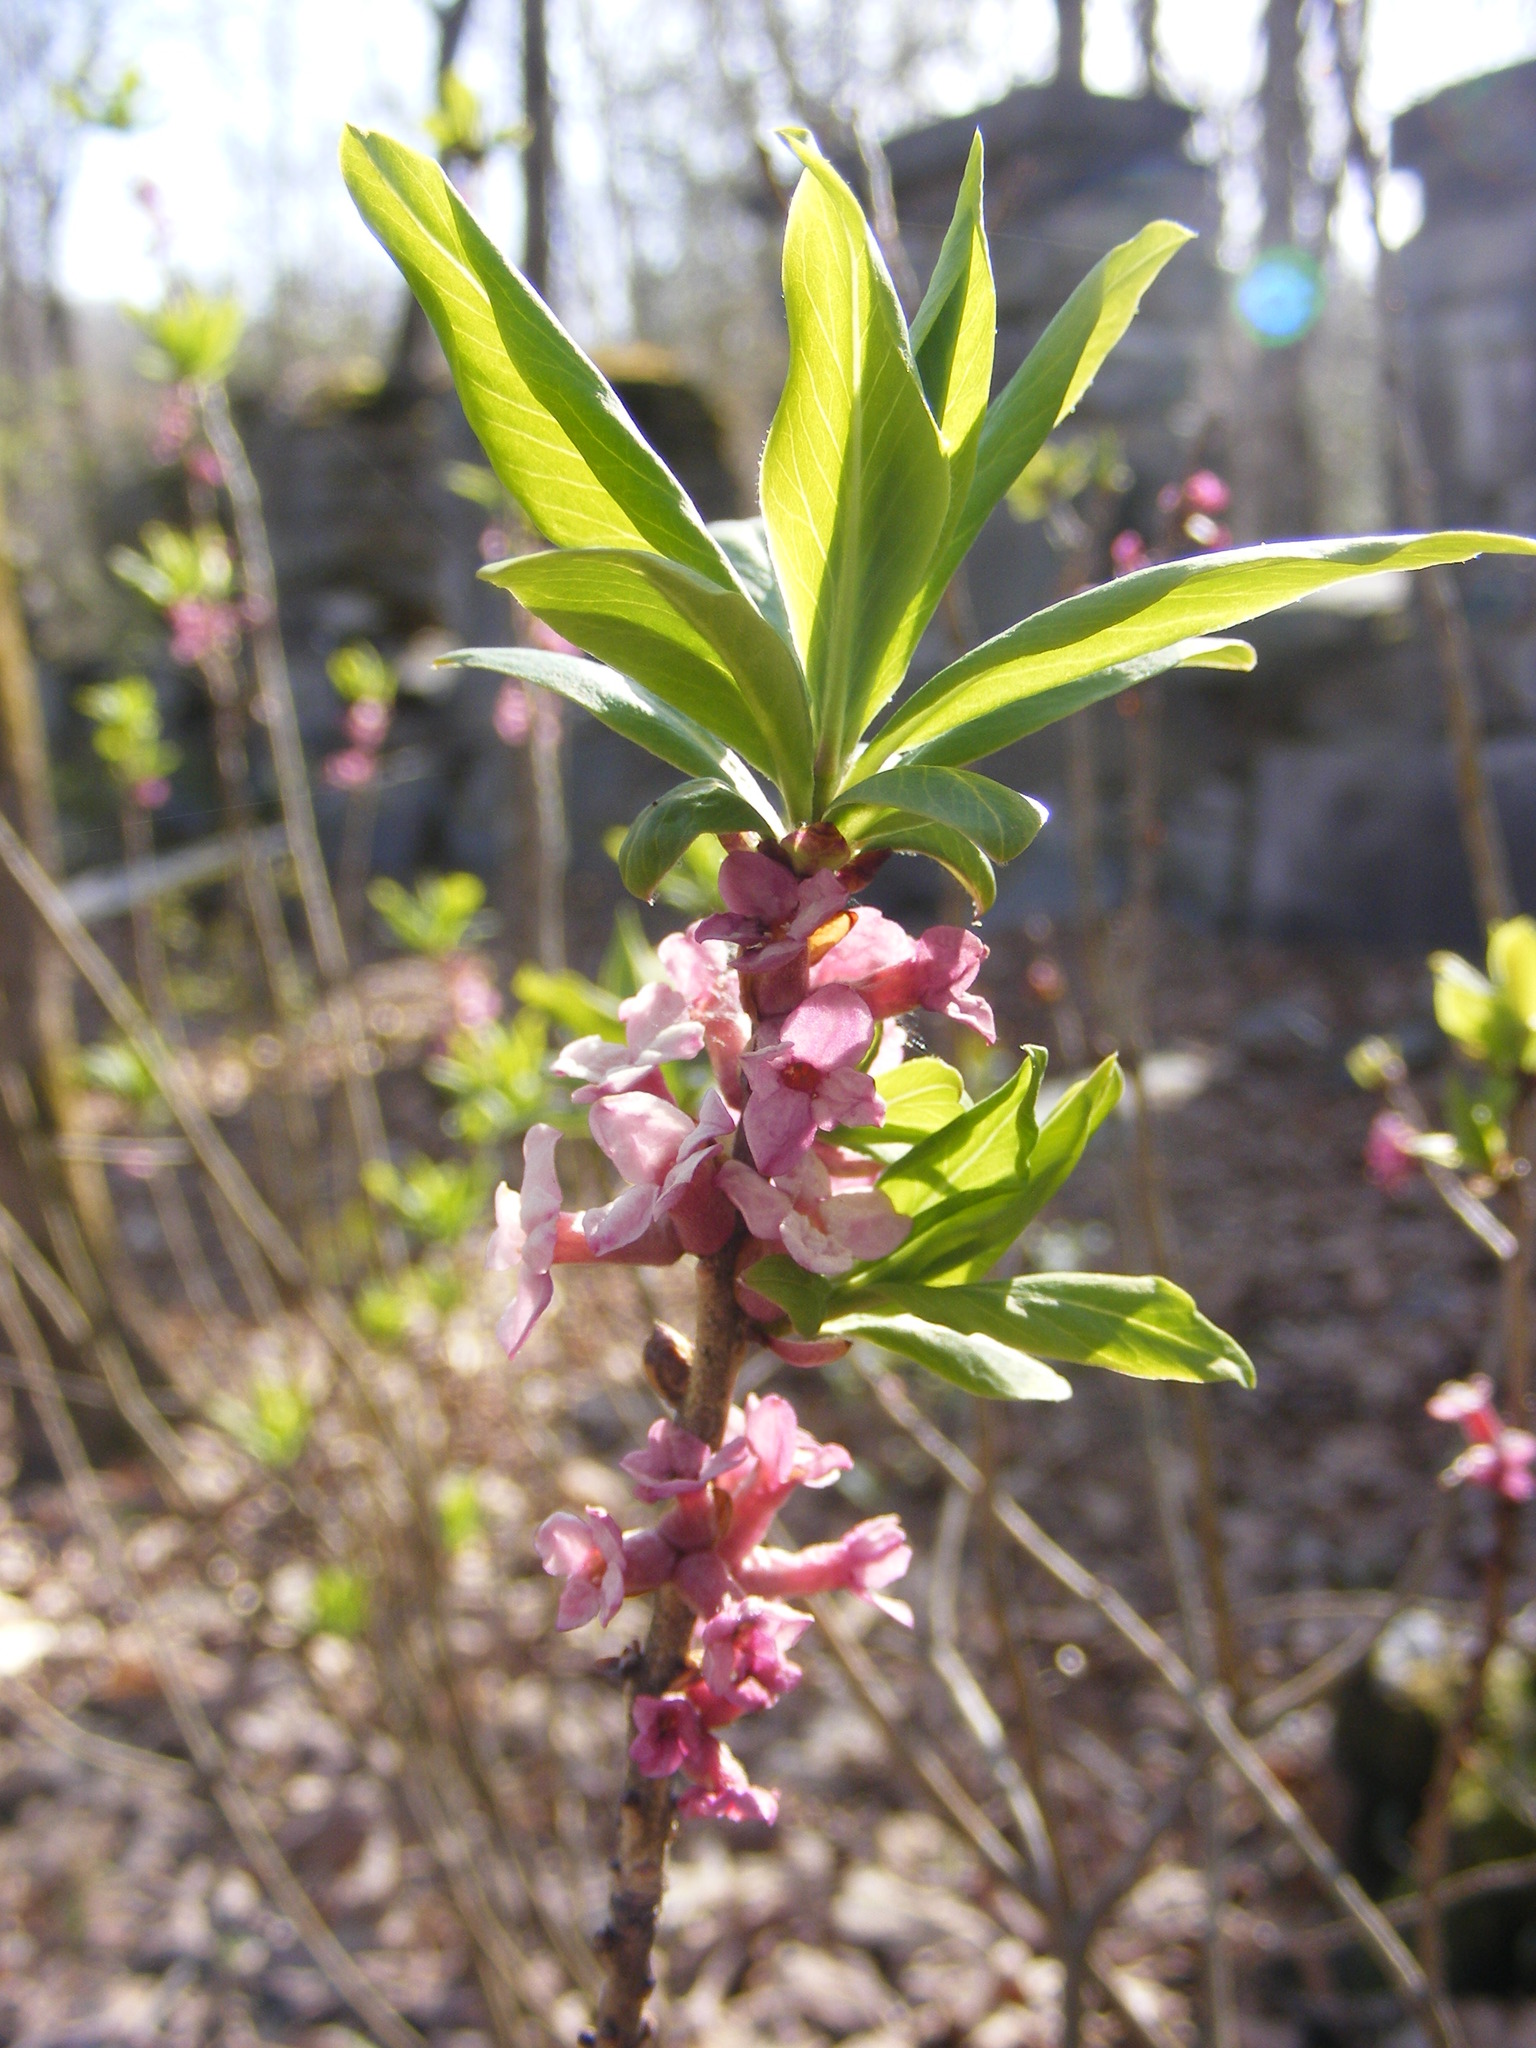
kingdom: Plantae
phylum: Tracheophyta
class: Magnoliopsida
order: Malvales
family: Thymelaeaceae
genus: Daphne
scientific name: Daphne mezereum
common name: Mezereon
